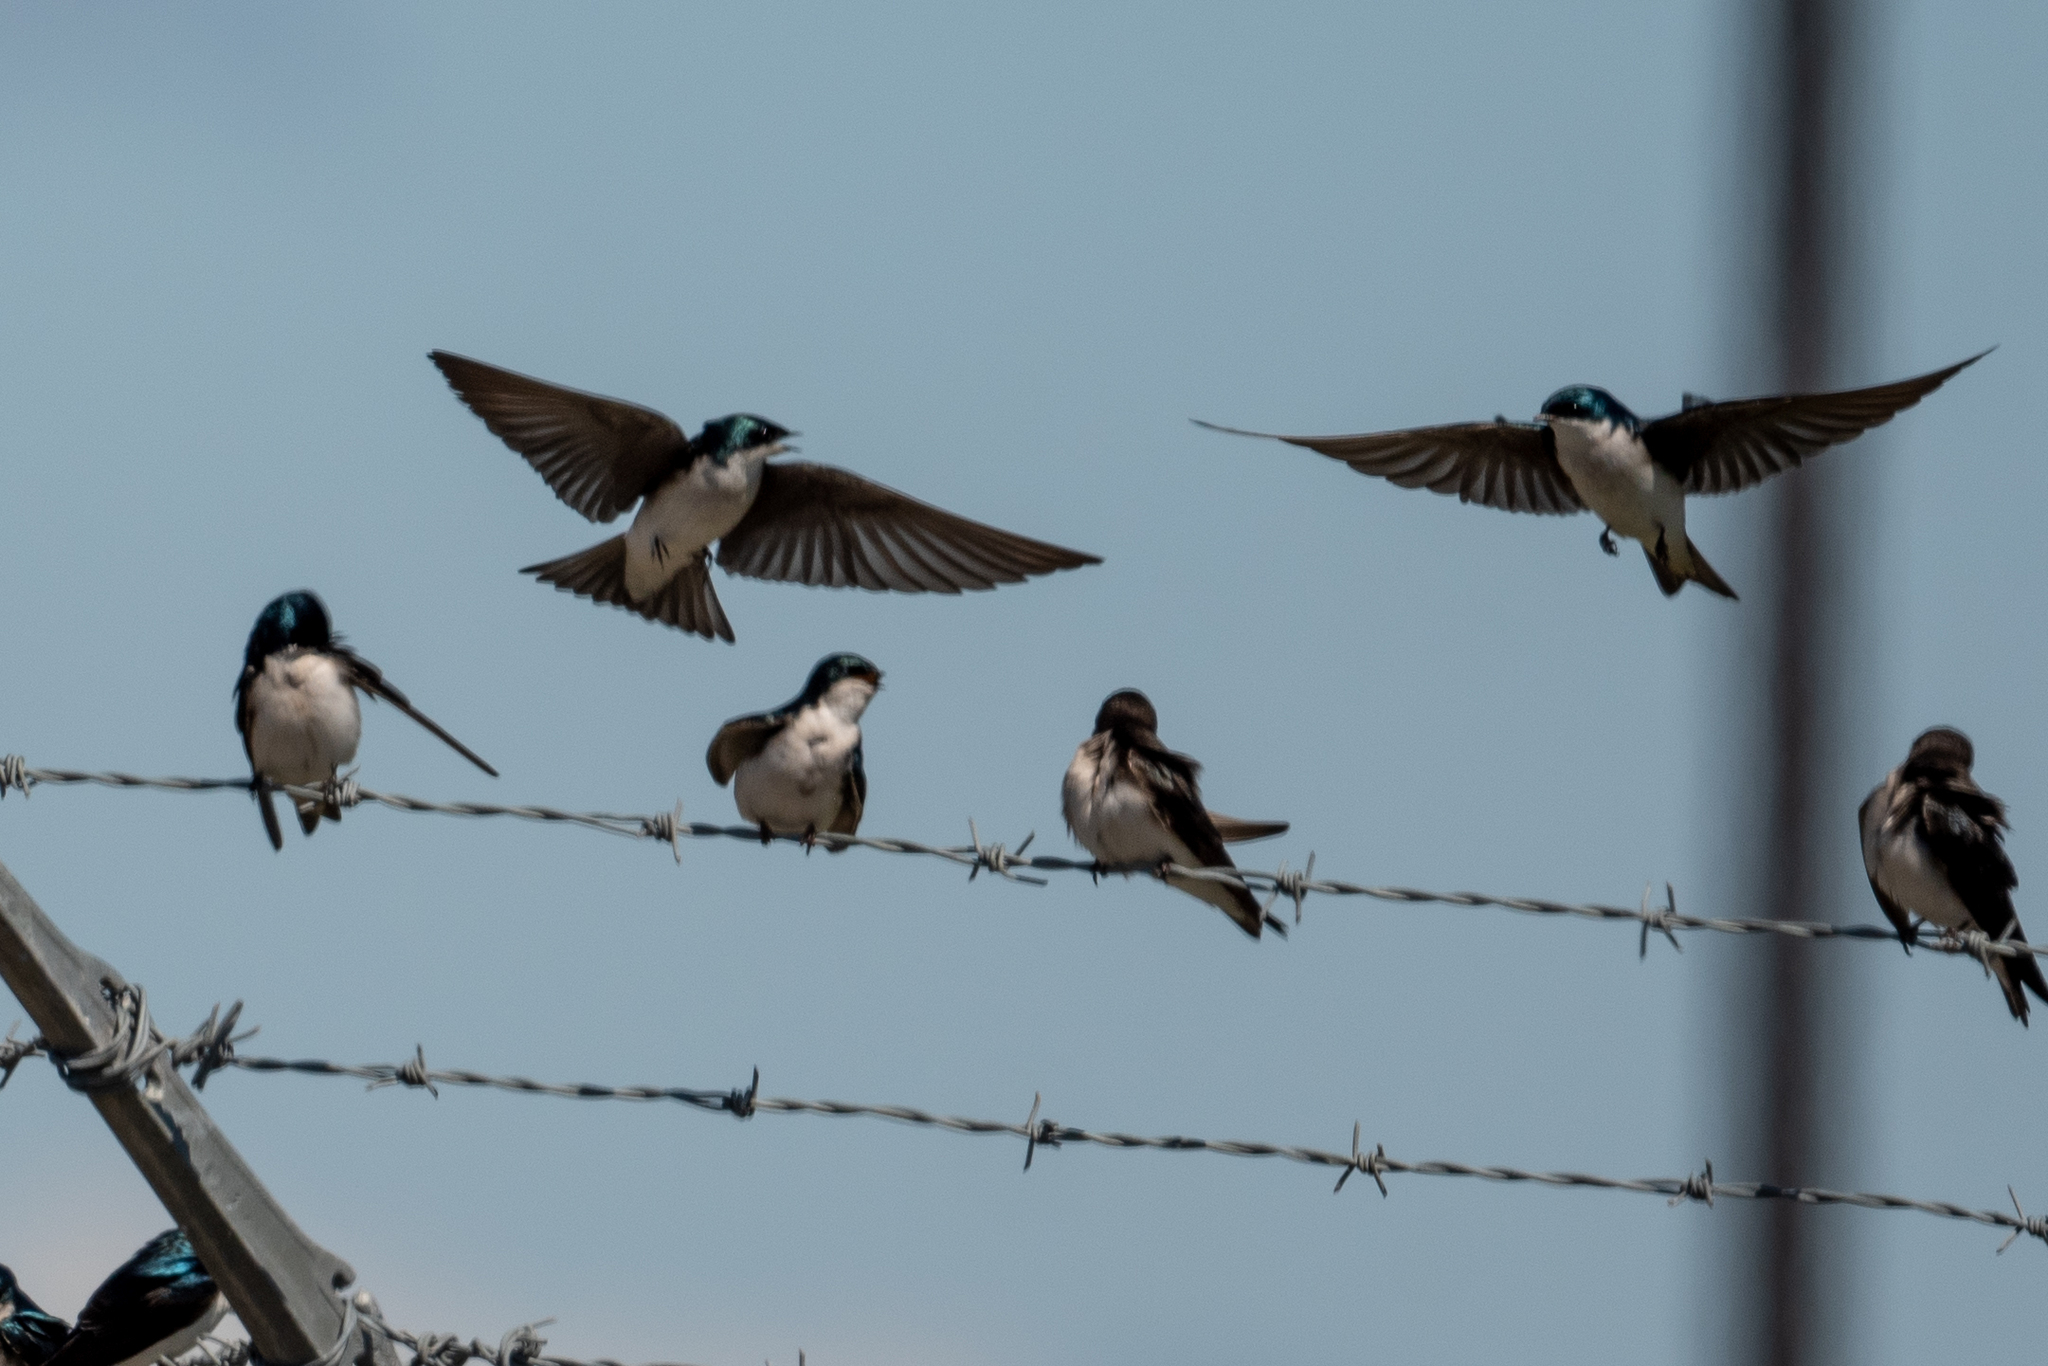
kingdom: Animalia
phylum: Chordata
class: Aves
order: Passeriformes
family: Hirundinidae
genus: Tachycineta
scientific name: Tachycineta bicolor
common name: Tree swallow
